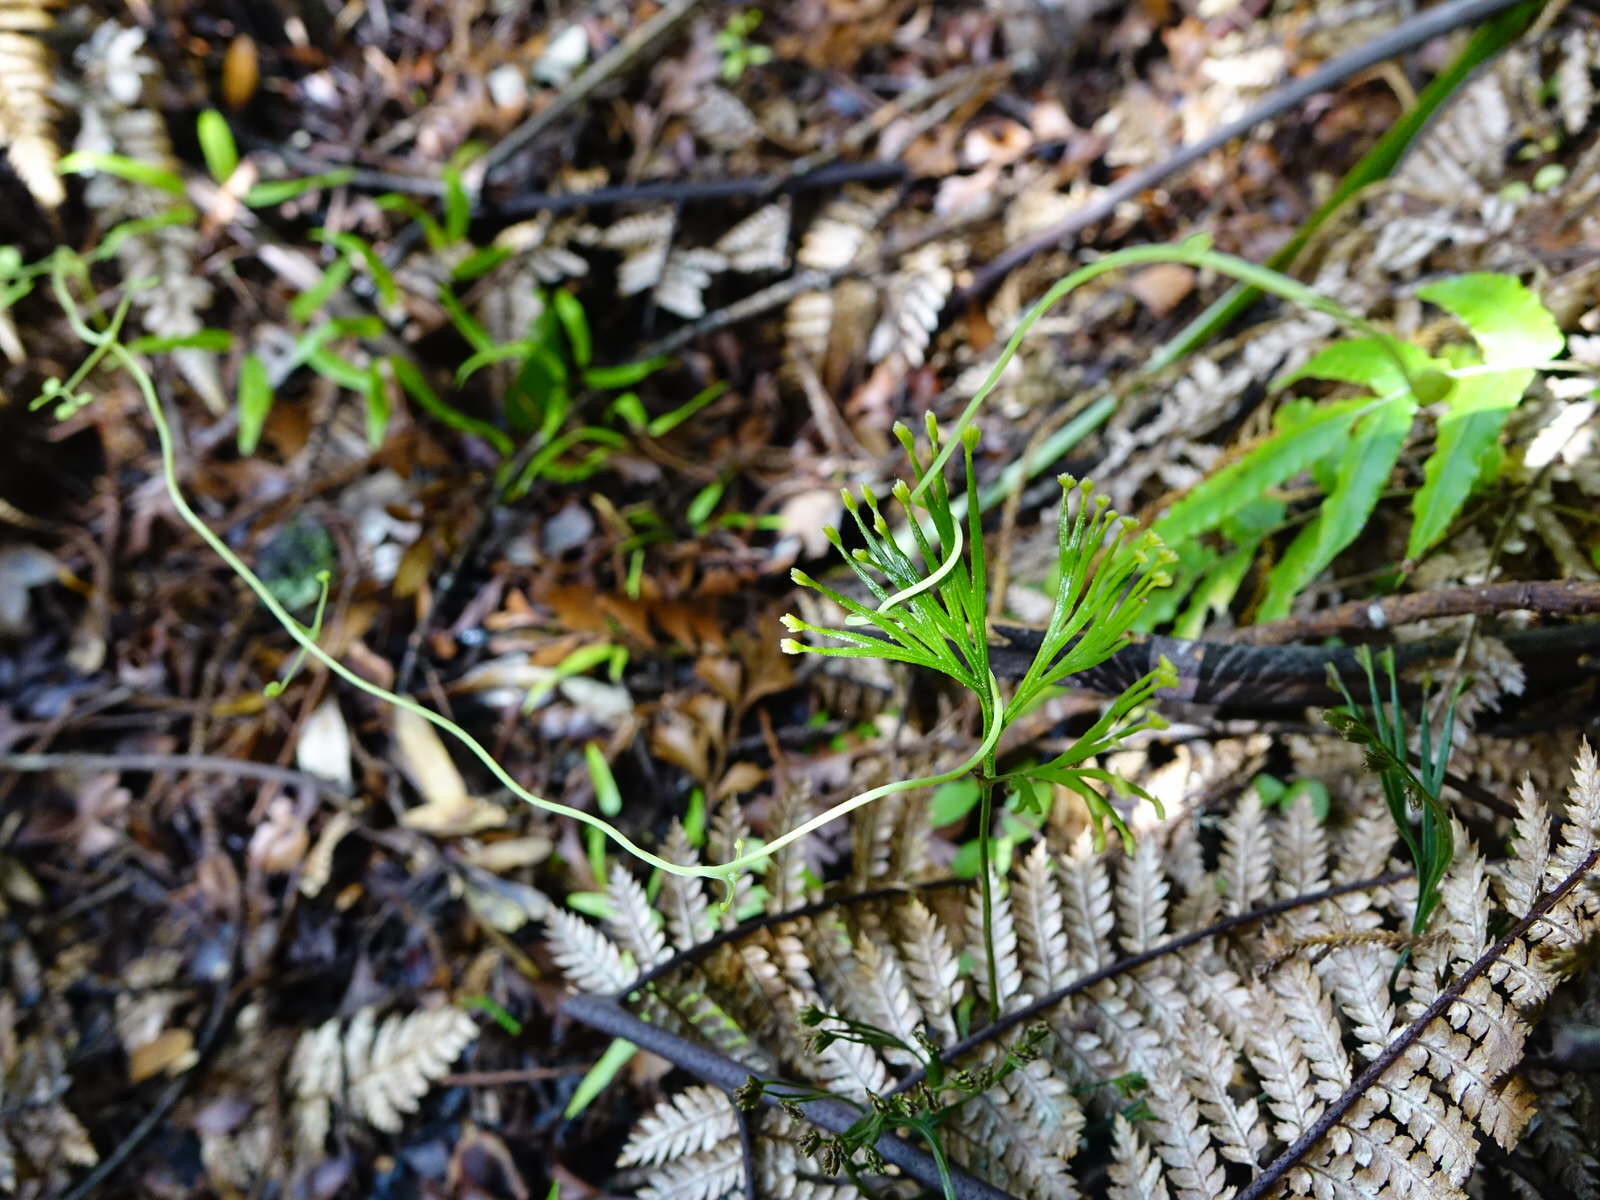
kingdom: Plantae
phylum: Tracheophyta
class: Polypodiopsida
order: Schizaeales
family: Schizaeaceae
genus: Schizaea
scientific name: Schizaea dichotoma
